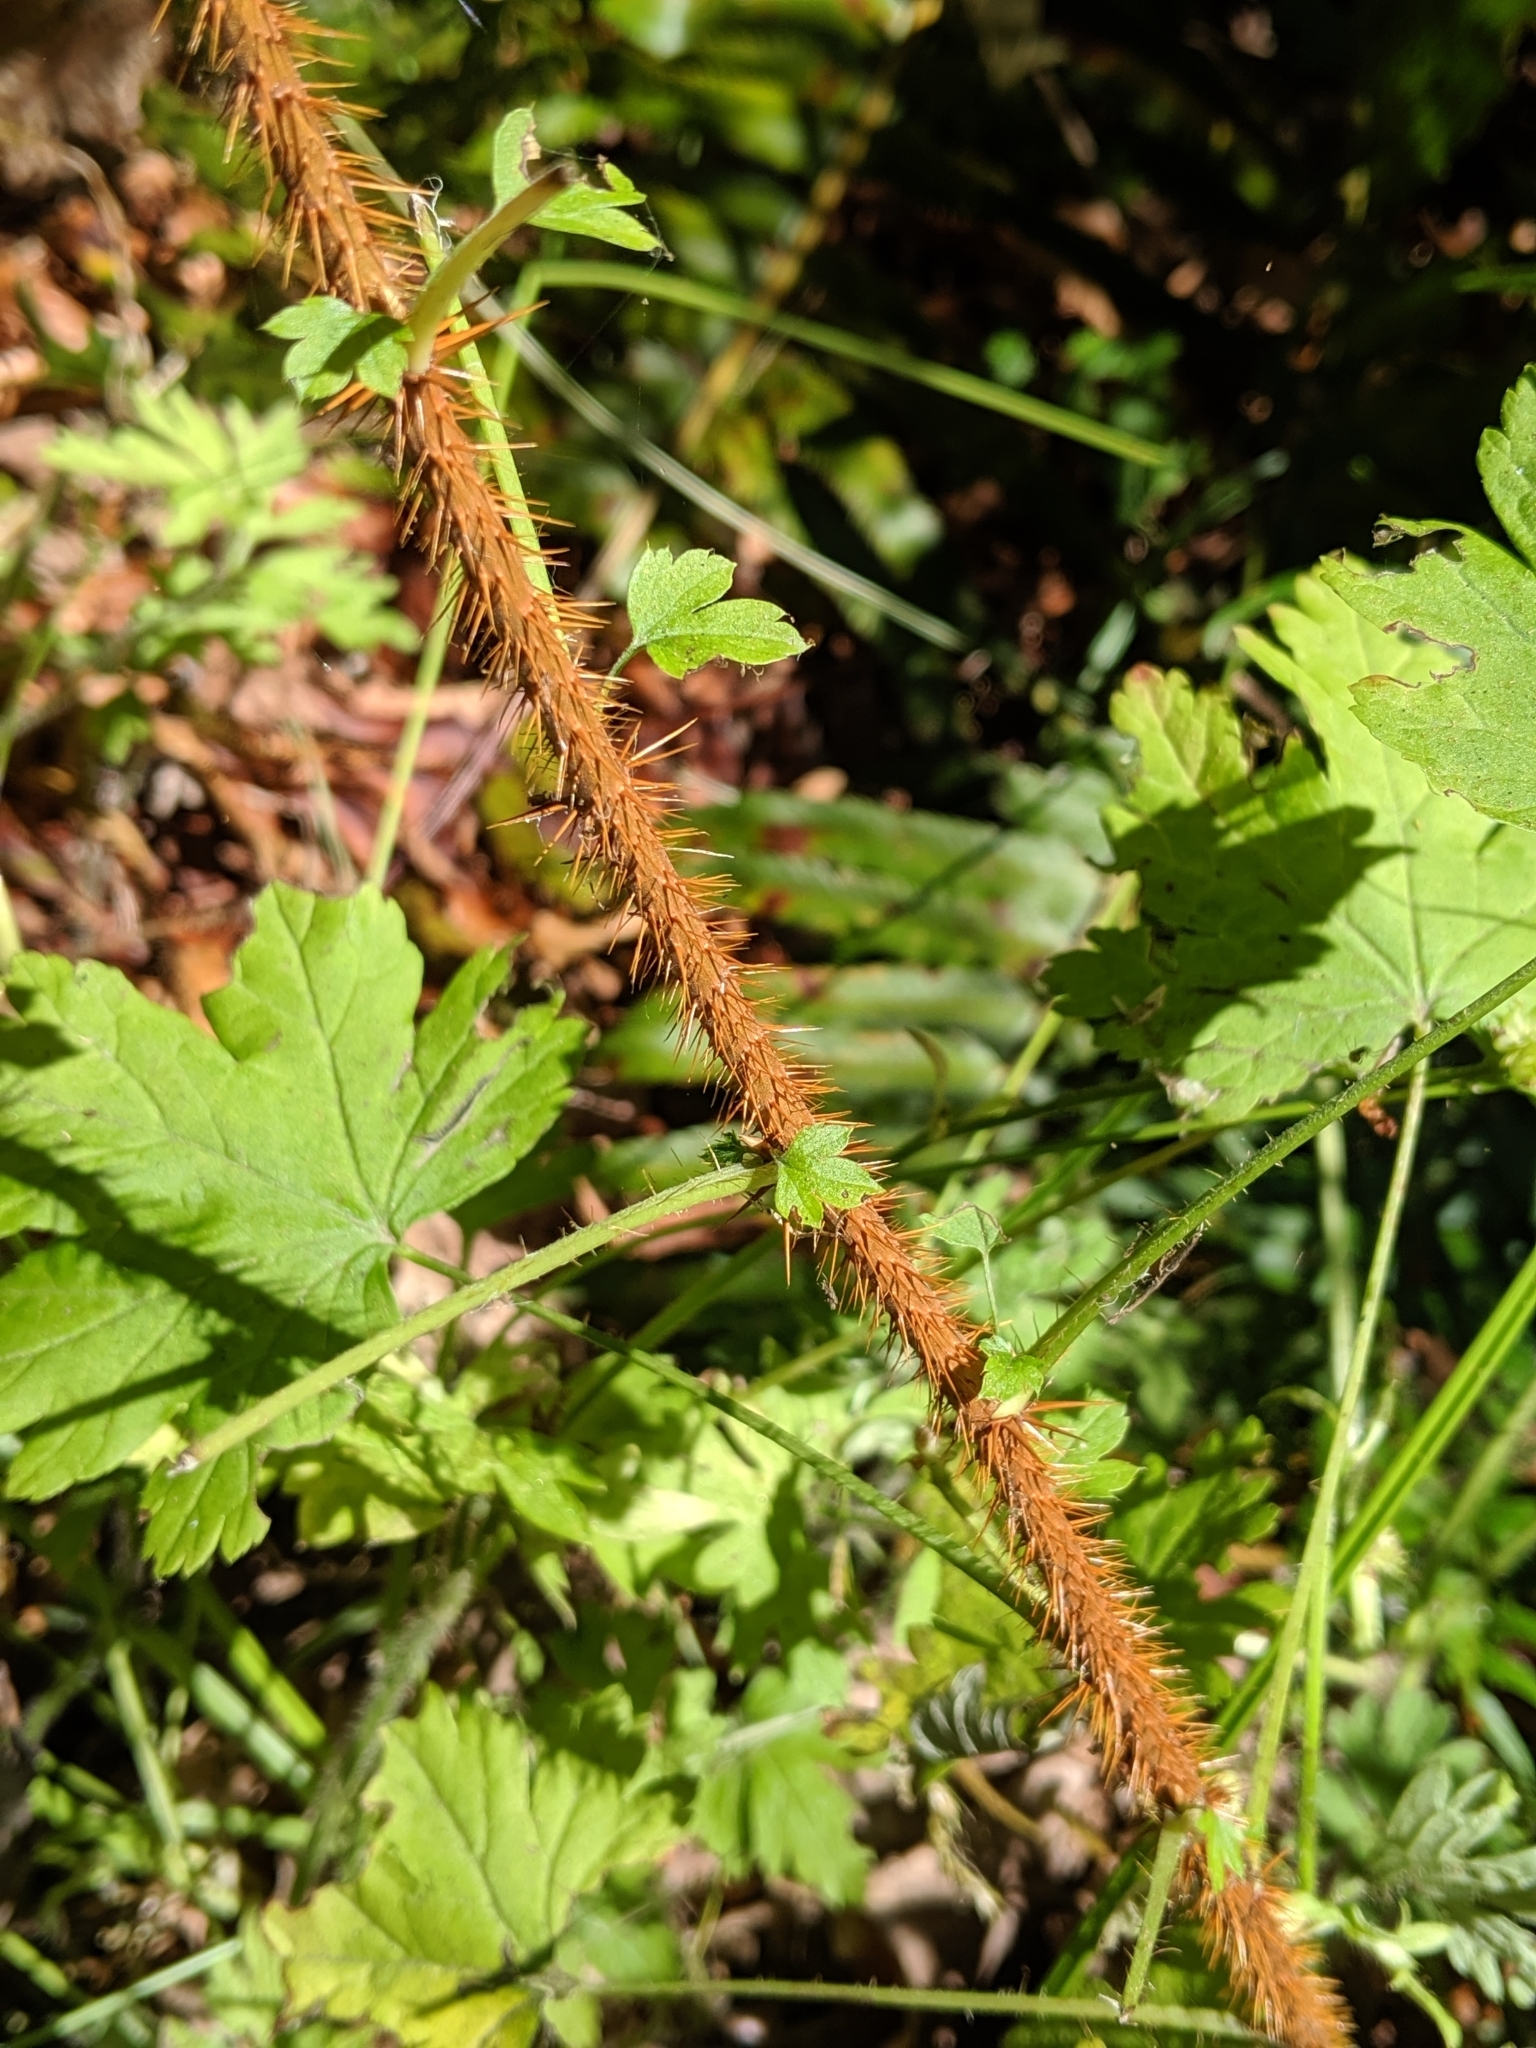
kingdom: Plantae
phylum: Tracheophyta
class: Magnoliopsida
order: Saxifragales
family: Grossulariaceae
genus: Ribes
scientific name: Ribes lacustre
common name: Black gooseberry
